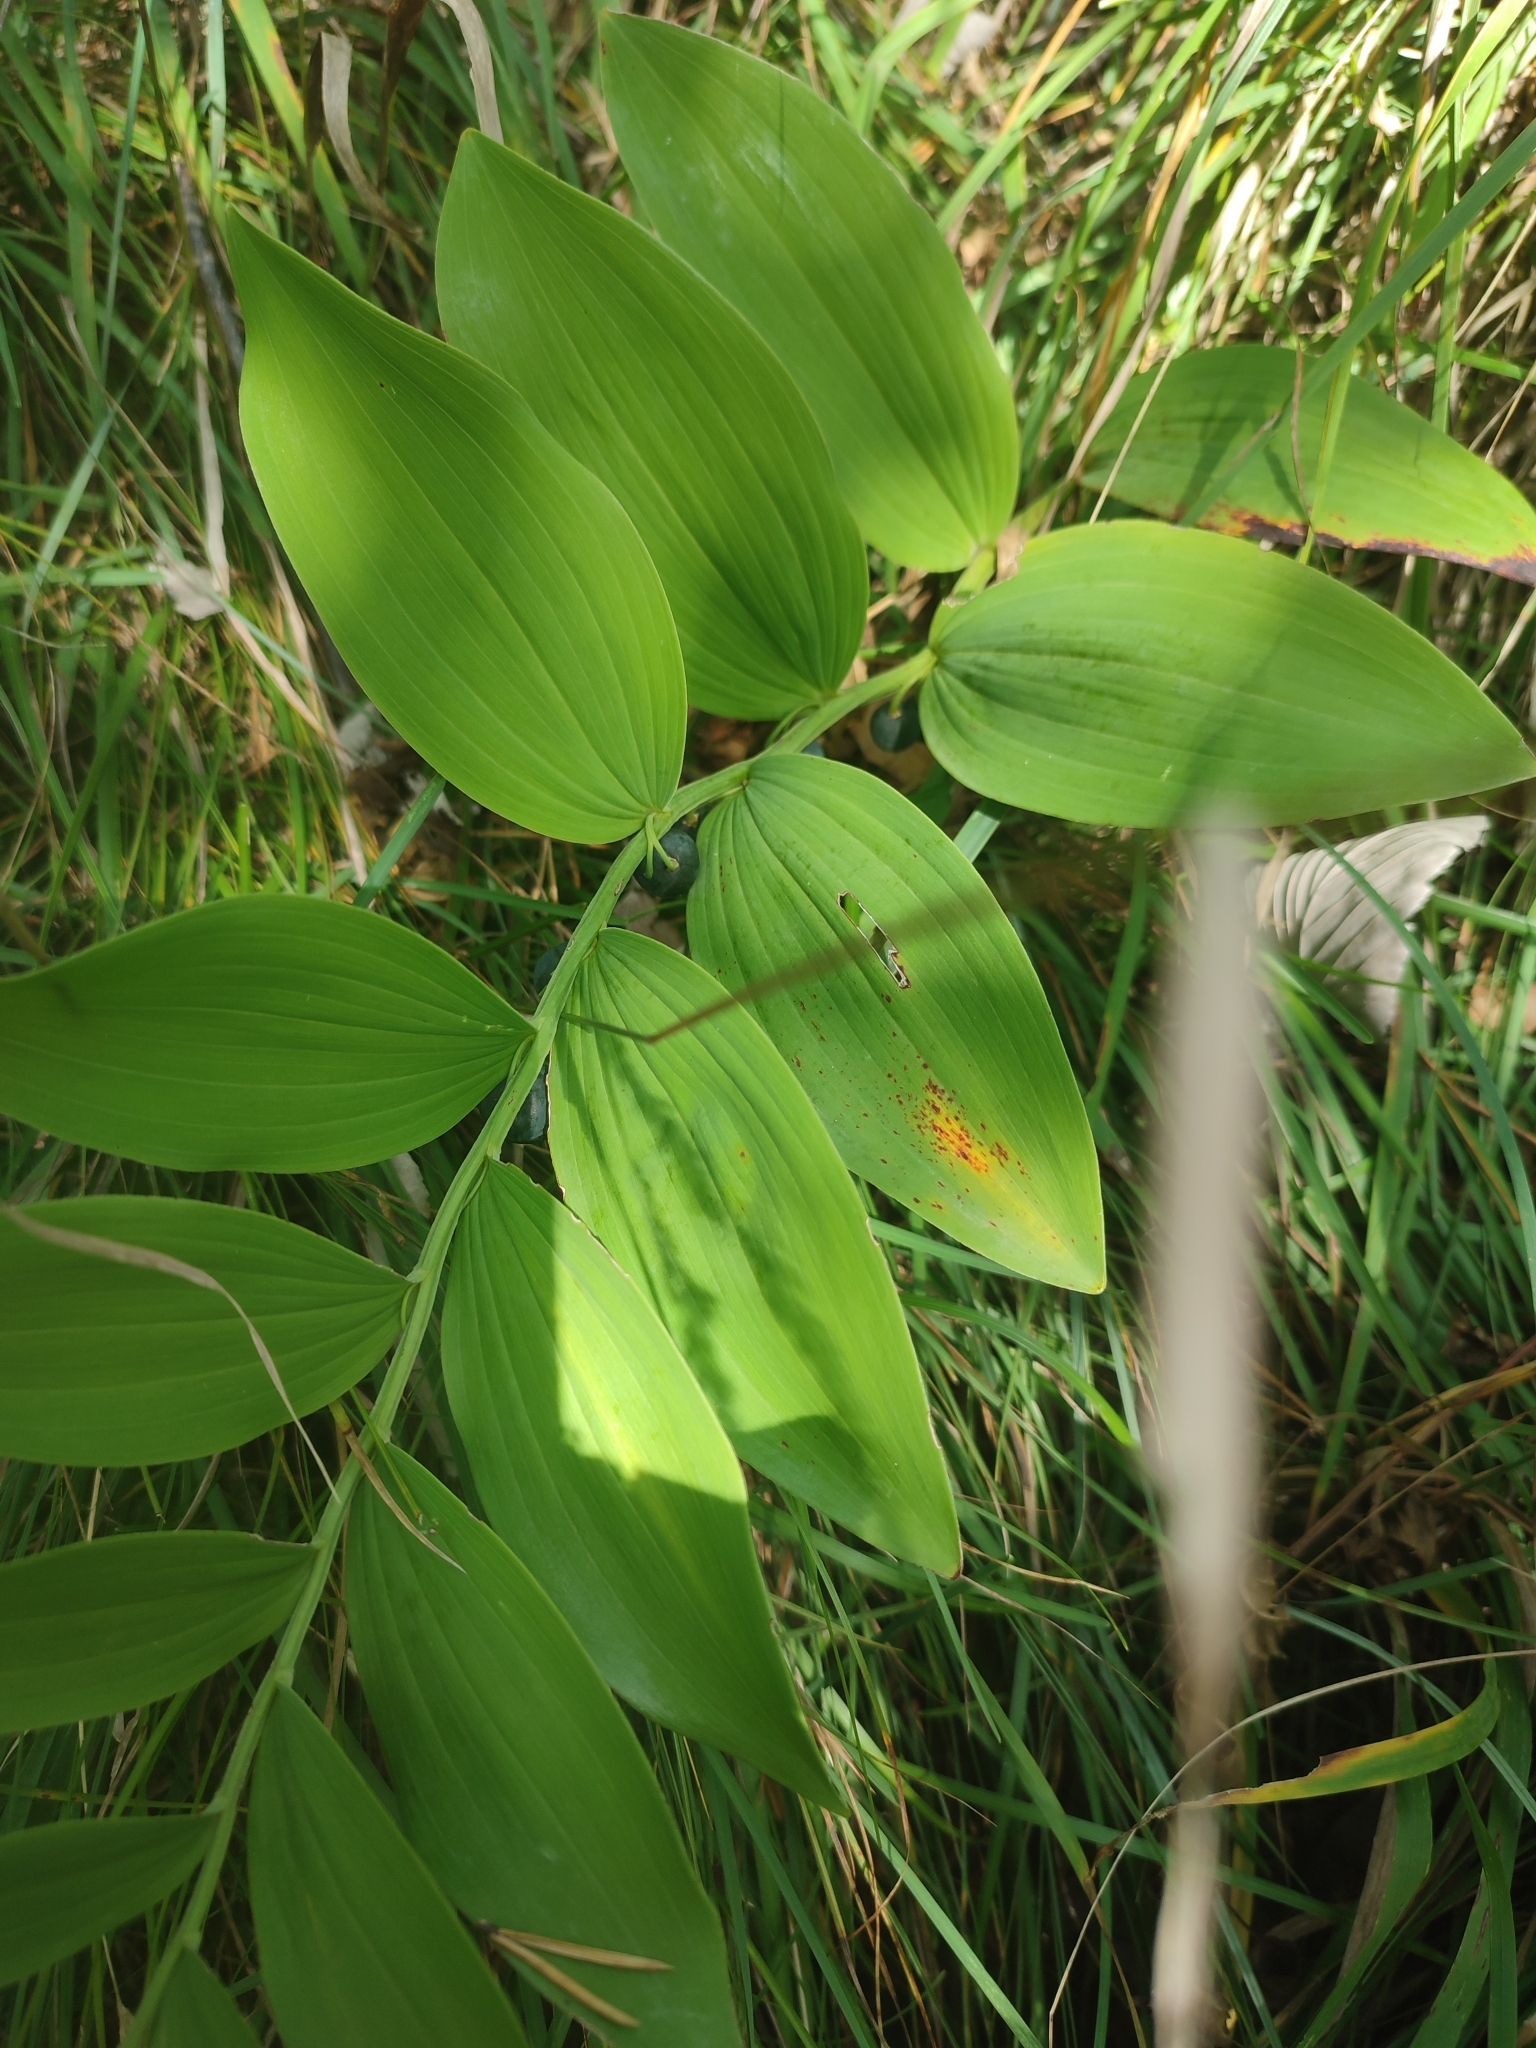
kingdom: Plantae
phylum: Tracheophyta
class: Liliopsida
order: Asparagales
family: Asparagaceae
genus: Polygonatum
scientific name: Polygonatum odoratum
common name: Angular solomon's-seal
